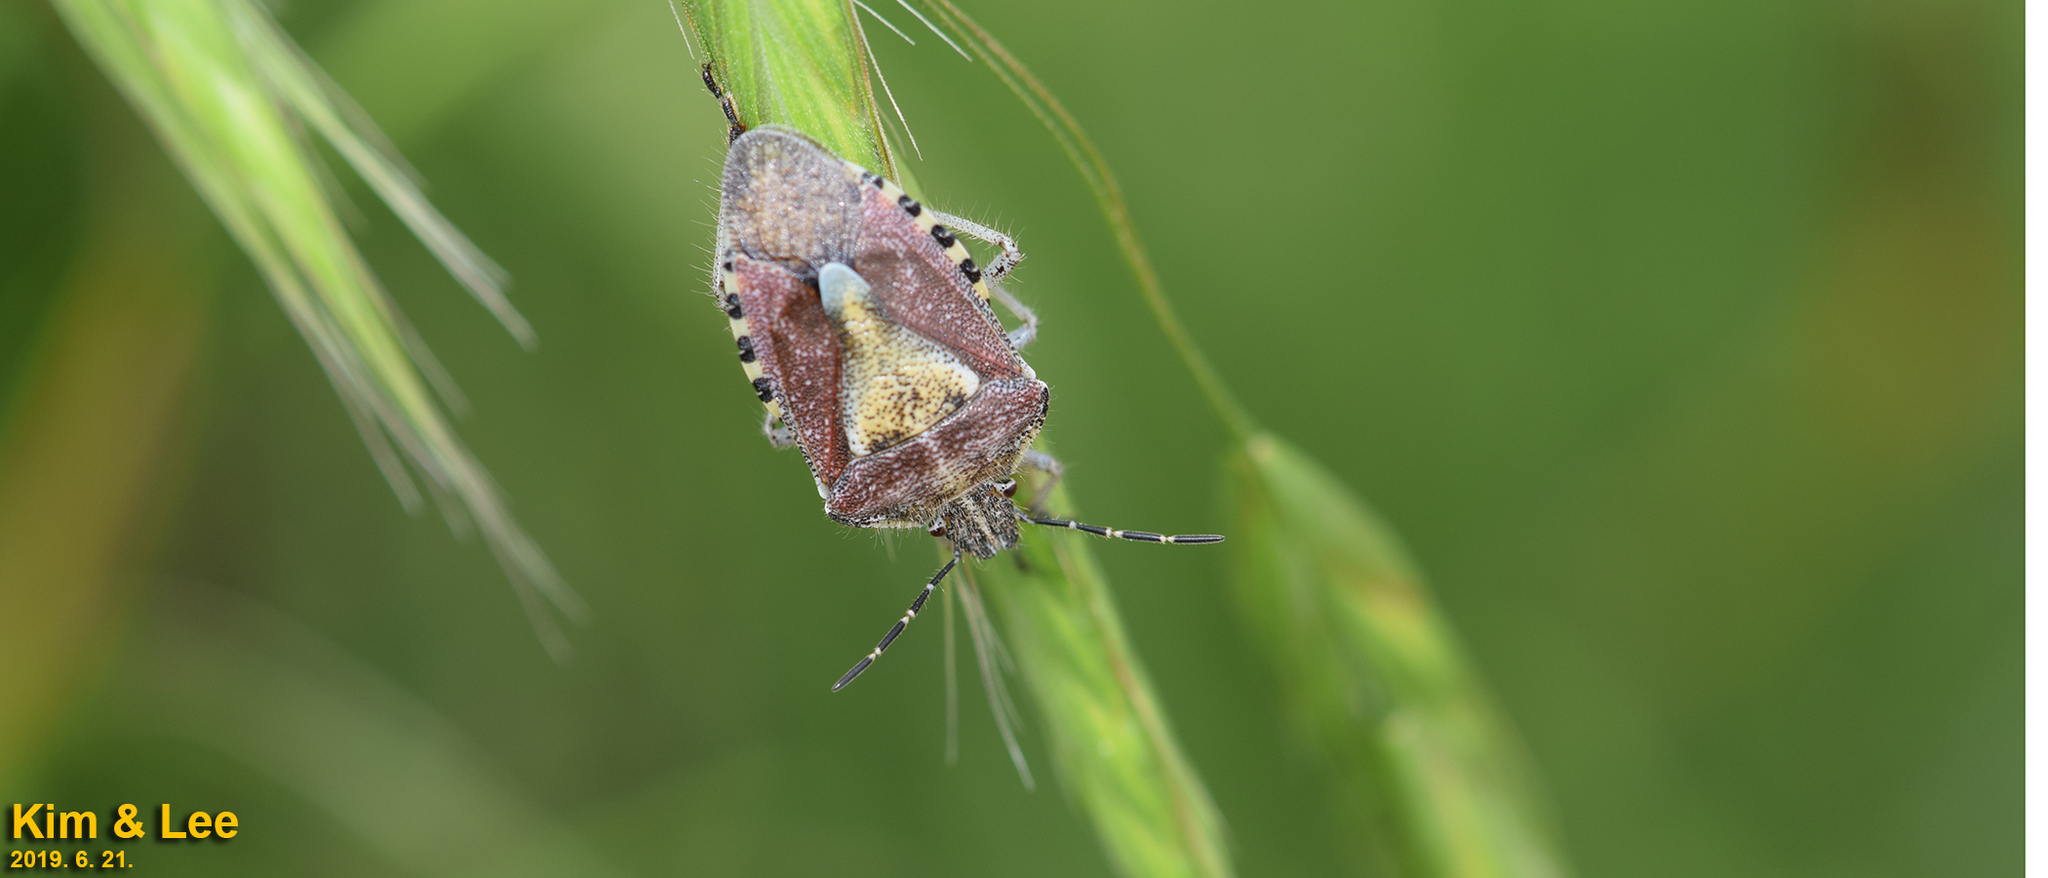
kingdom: Animalia
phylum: Arthropoda
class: Insecta
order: Hemiptera
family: Pentatomidae
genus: Dolycoris
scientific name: Dolycoris baccarum
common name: Sloe bug
